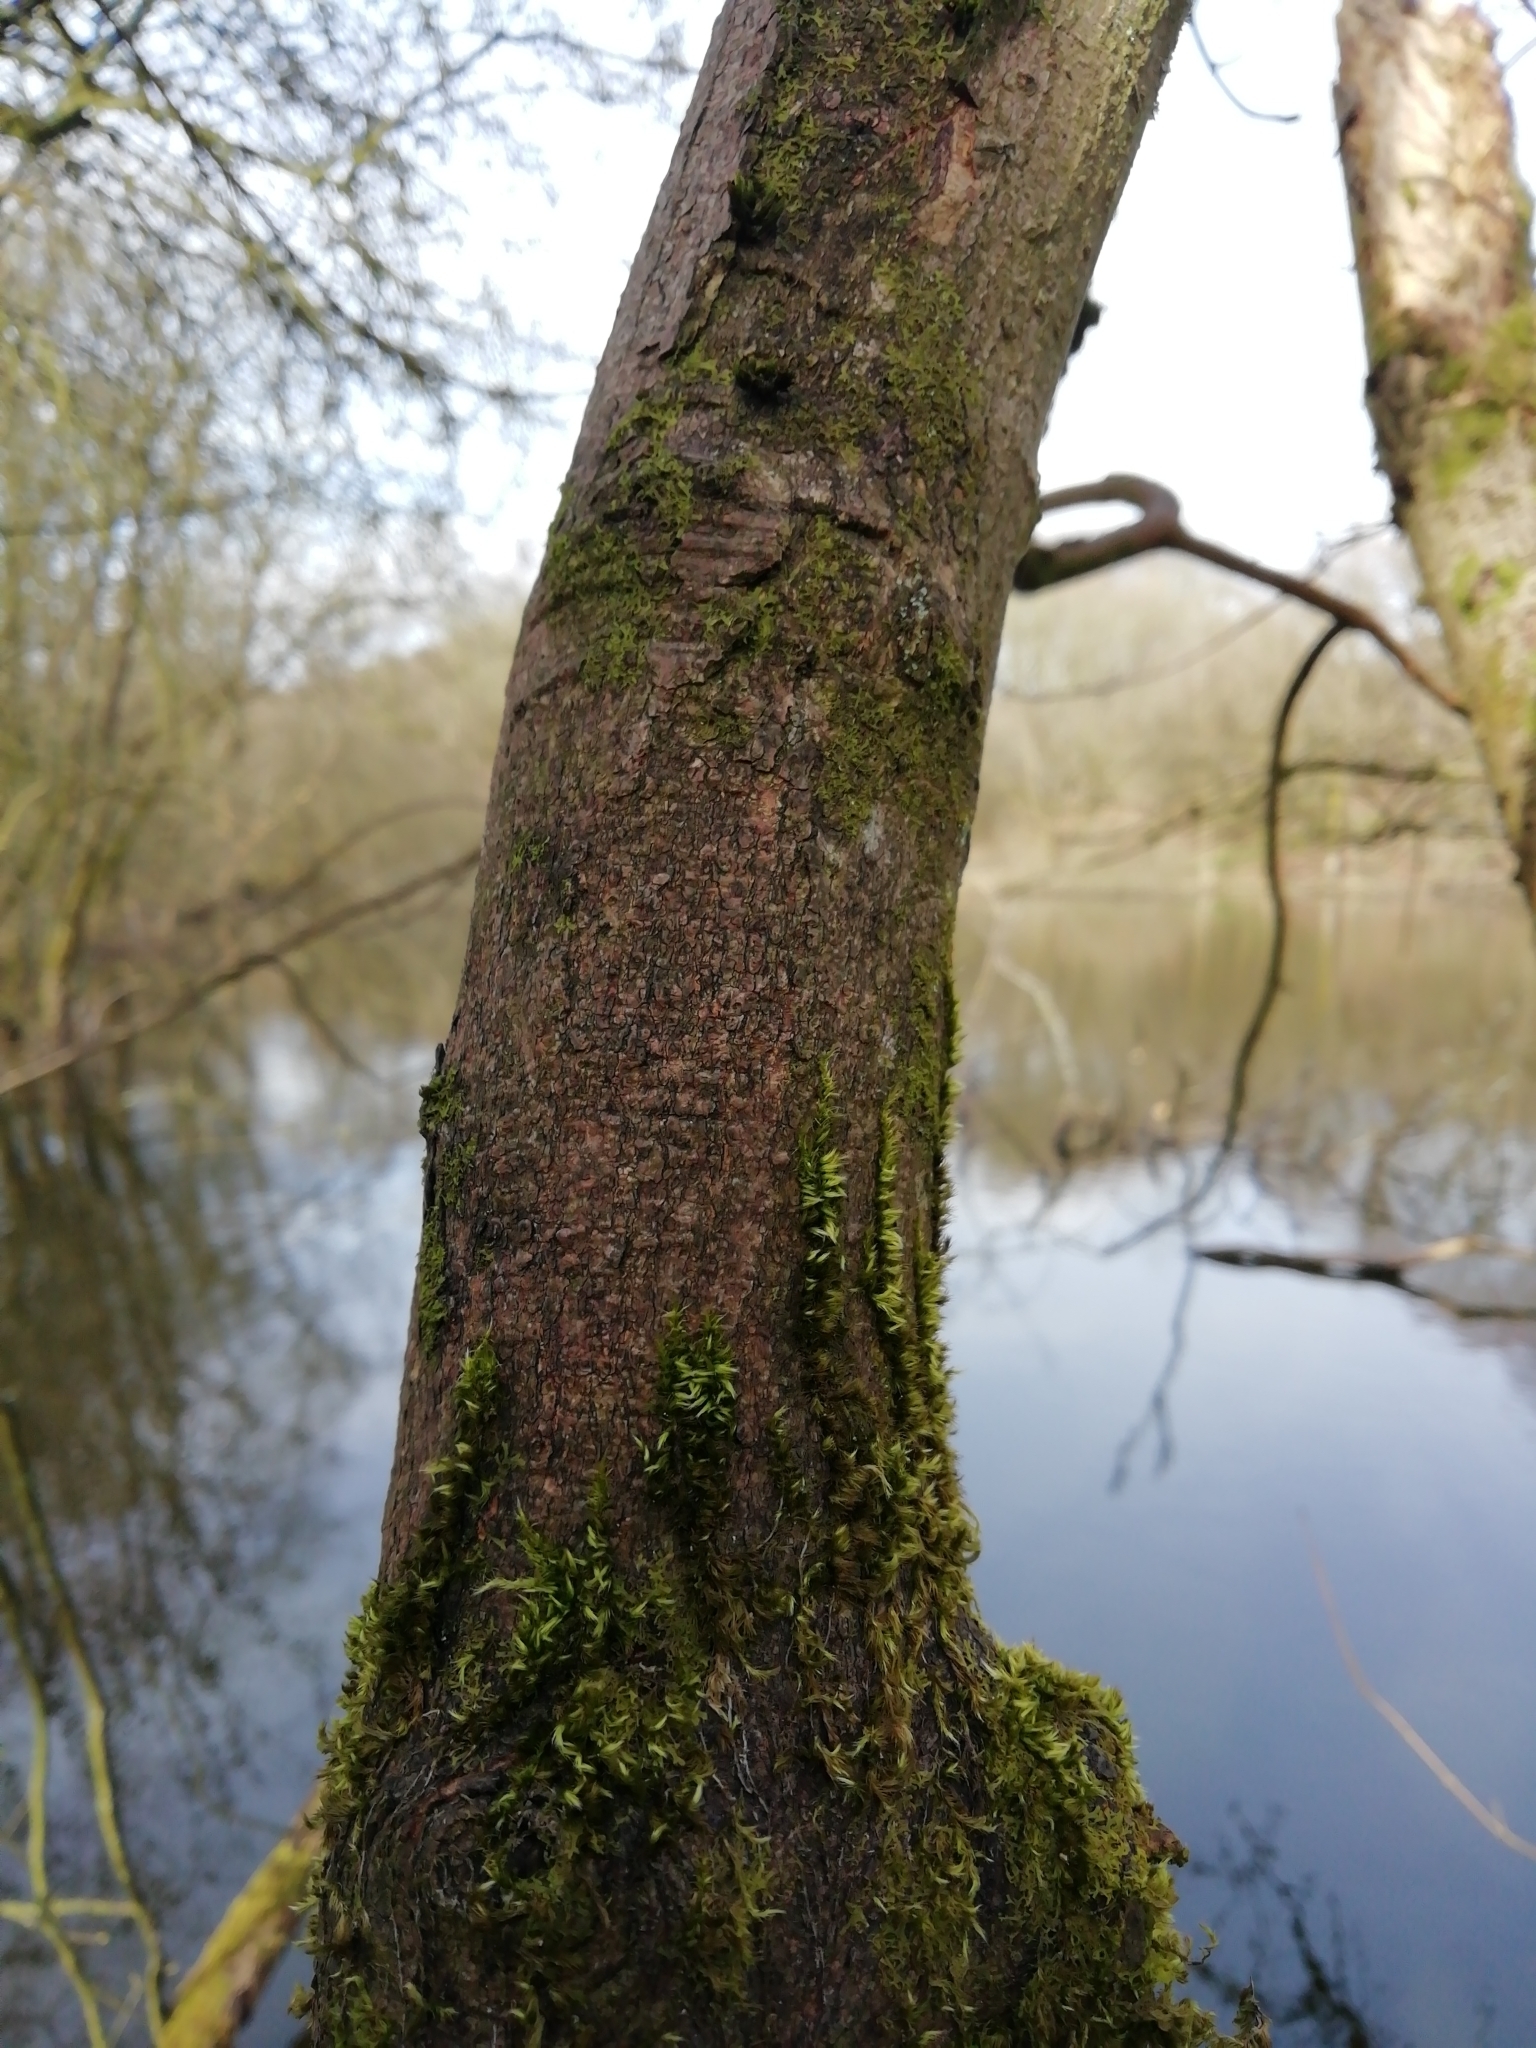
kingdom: Plantae
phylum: Bryophyta
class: Bryopsida
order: Hypnales
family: Brachytheciaceae
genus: Homalothecium
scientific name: Homalothecium sericeum
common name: Silky wall feather-moss
